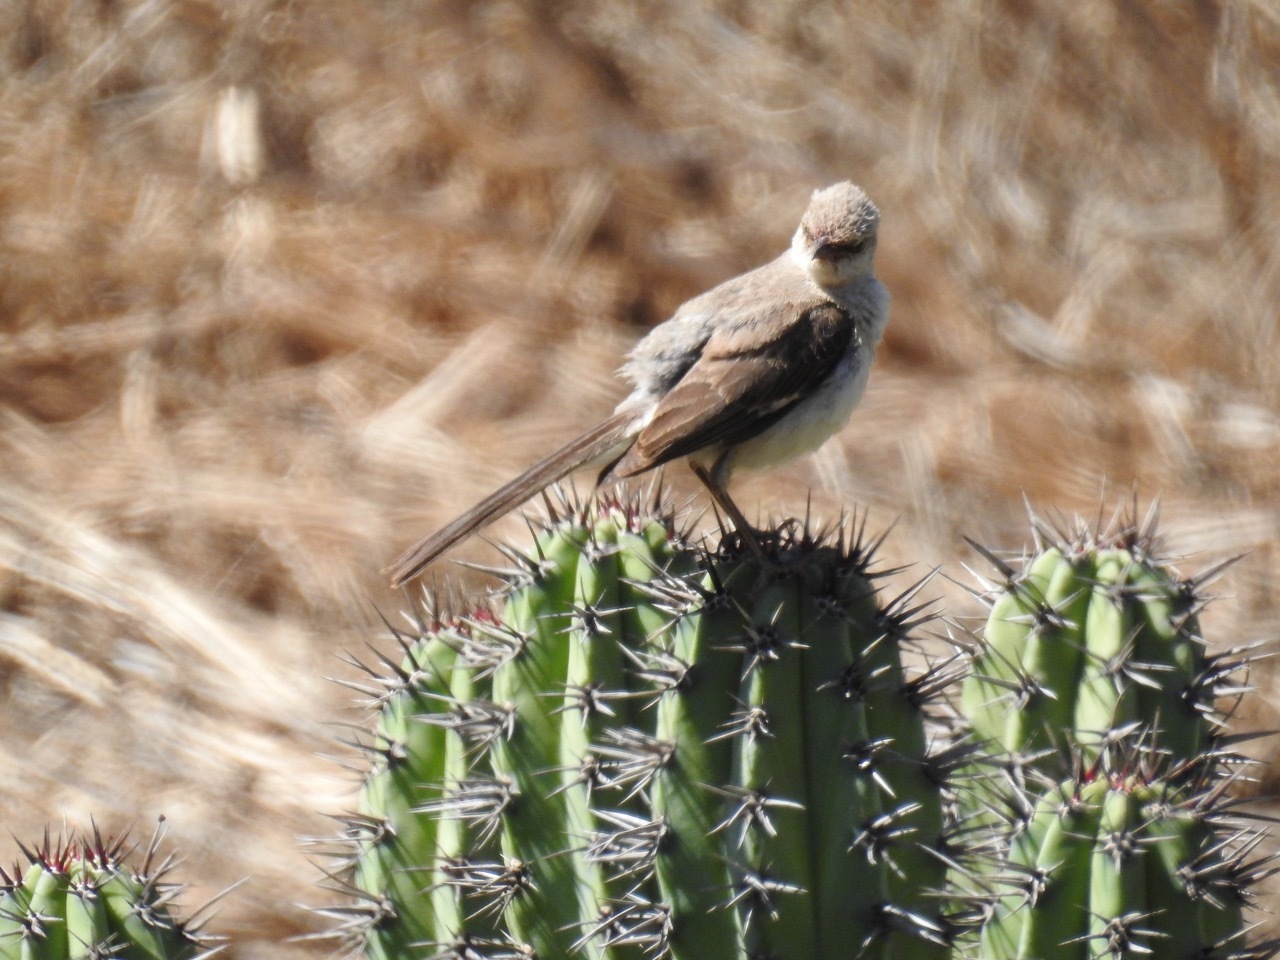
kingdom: Animalia
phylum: Chordata
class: Aves
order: Passeriformes
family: Mimidae
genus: Mimus
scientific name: Mimus polyglottos
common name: Northern mockingbird
